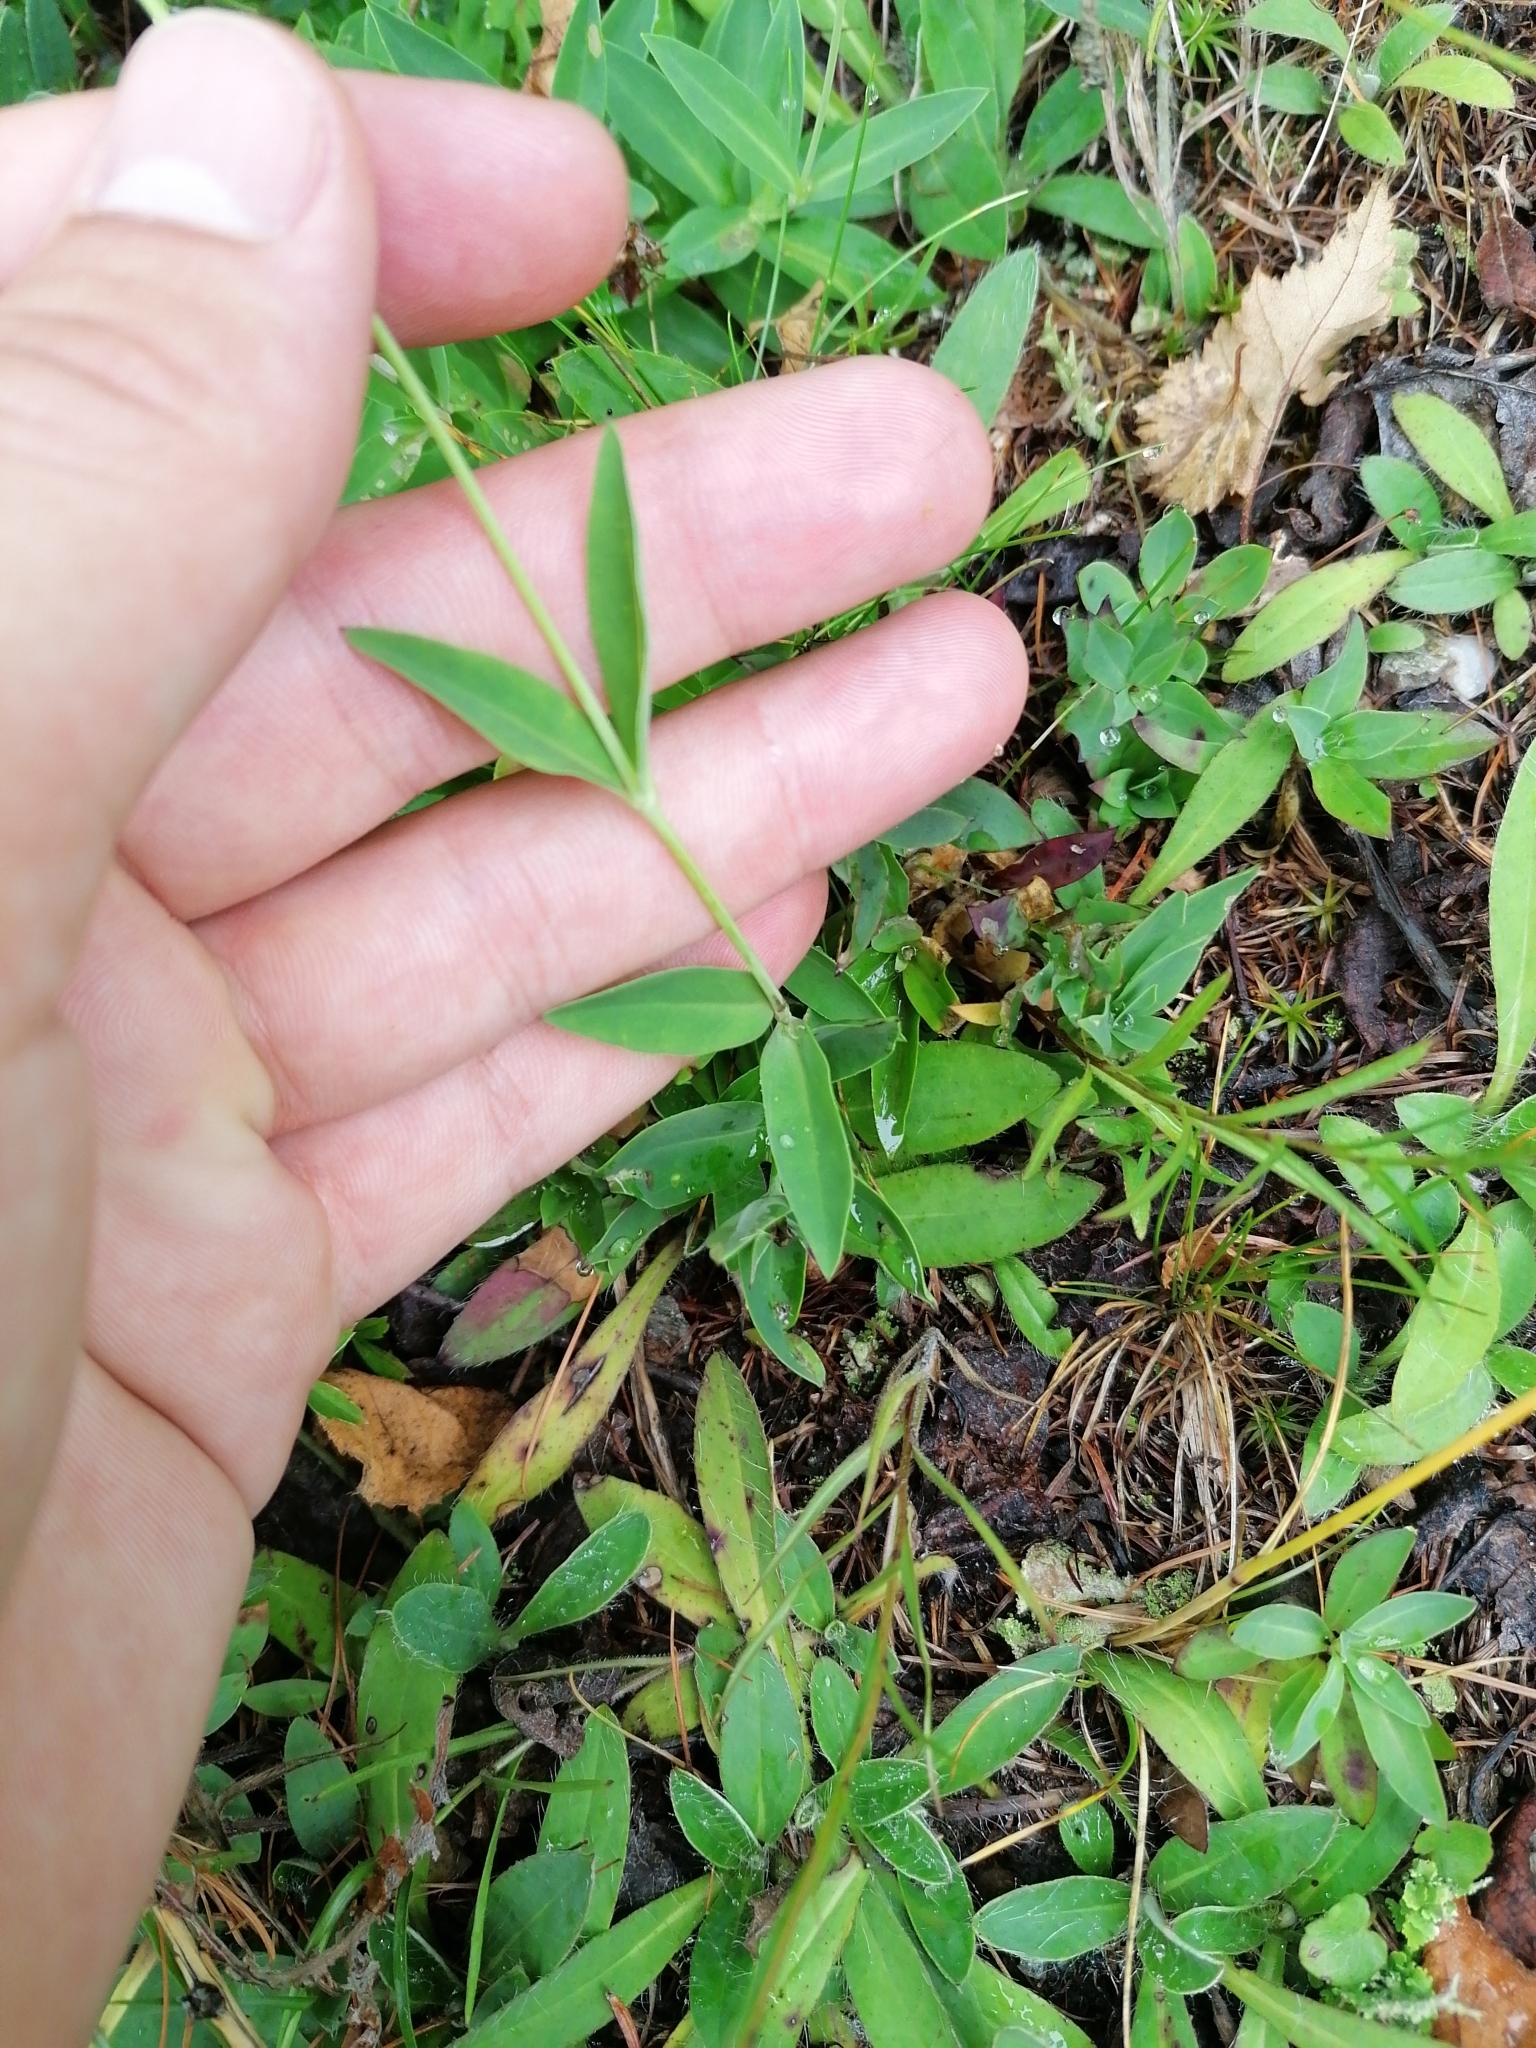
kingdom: Plantae
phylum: Tracheophyta
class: Magnoliopsida
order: Caryophyllales
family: Caryophyllaceae
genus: Silene
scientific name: Silene vulgaris
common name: Bladder campion
